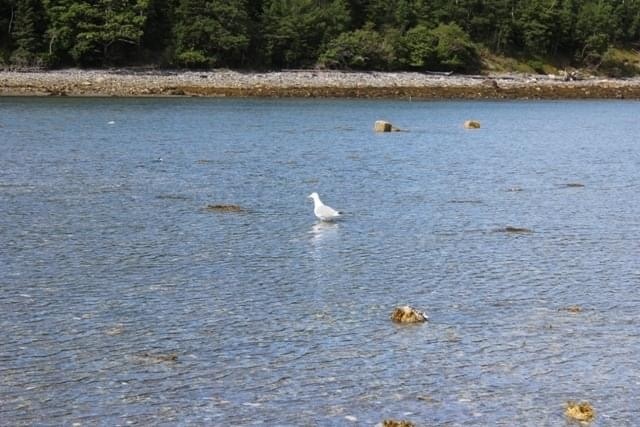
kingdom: Animalia
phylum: Chordata
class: Aves
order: Charadriiformes
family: Laridae
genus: Larus
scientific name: Larus smithsonianus
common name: American herring gull
